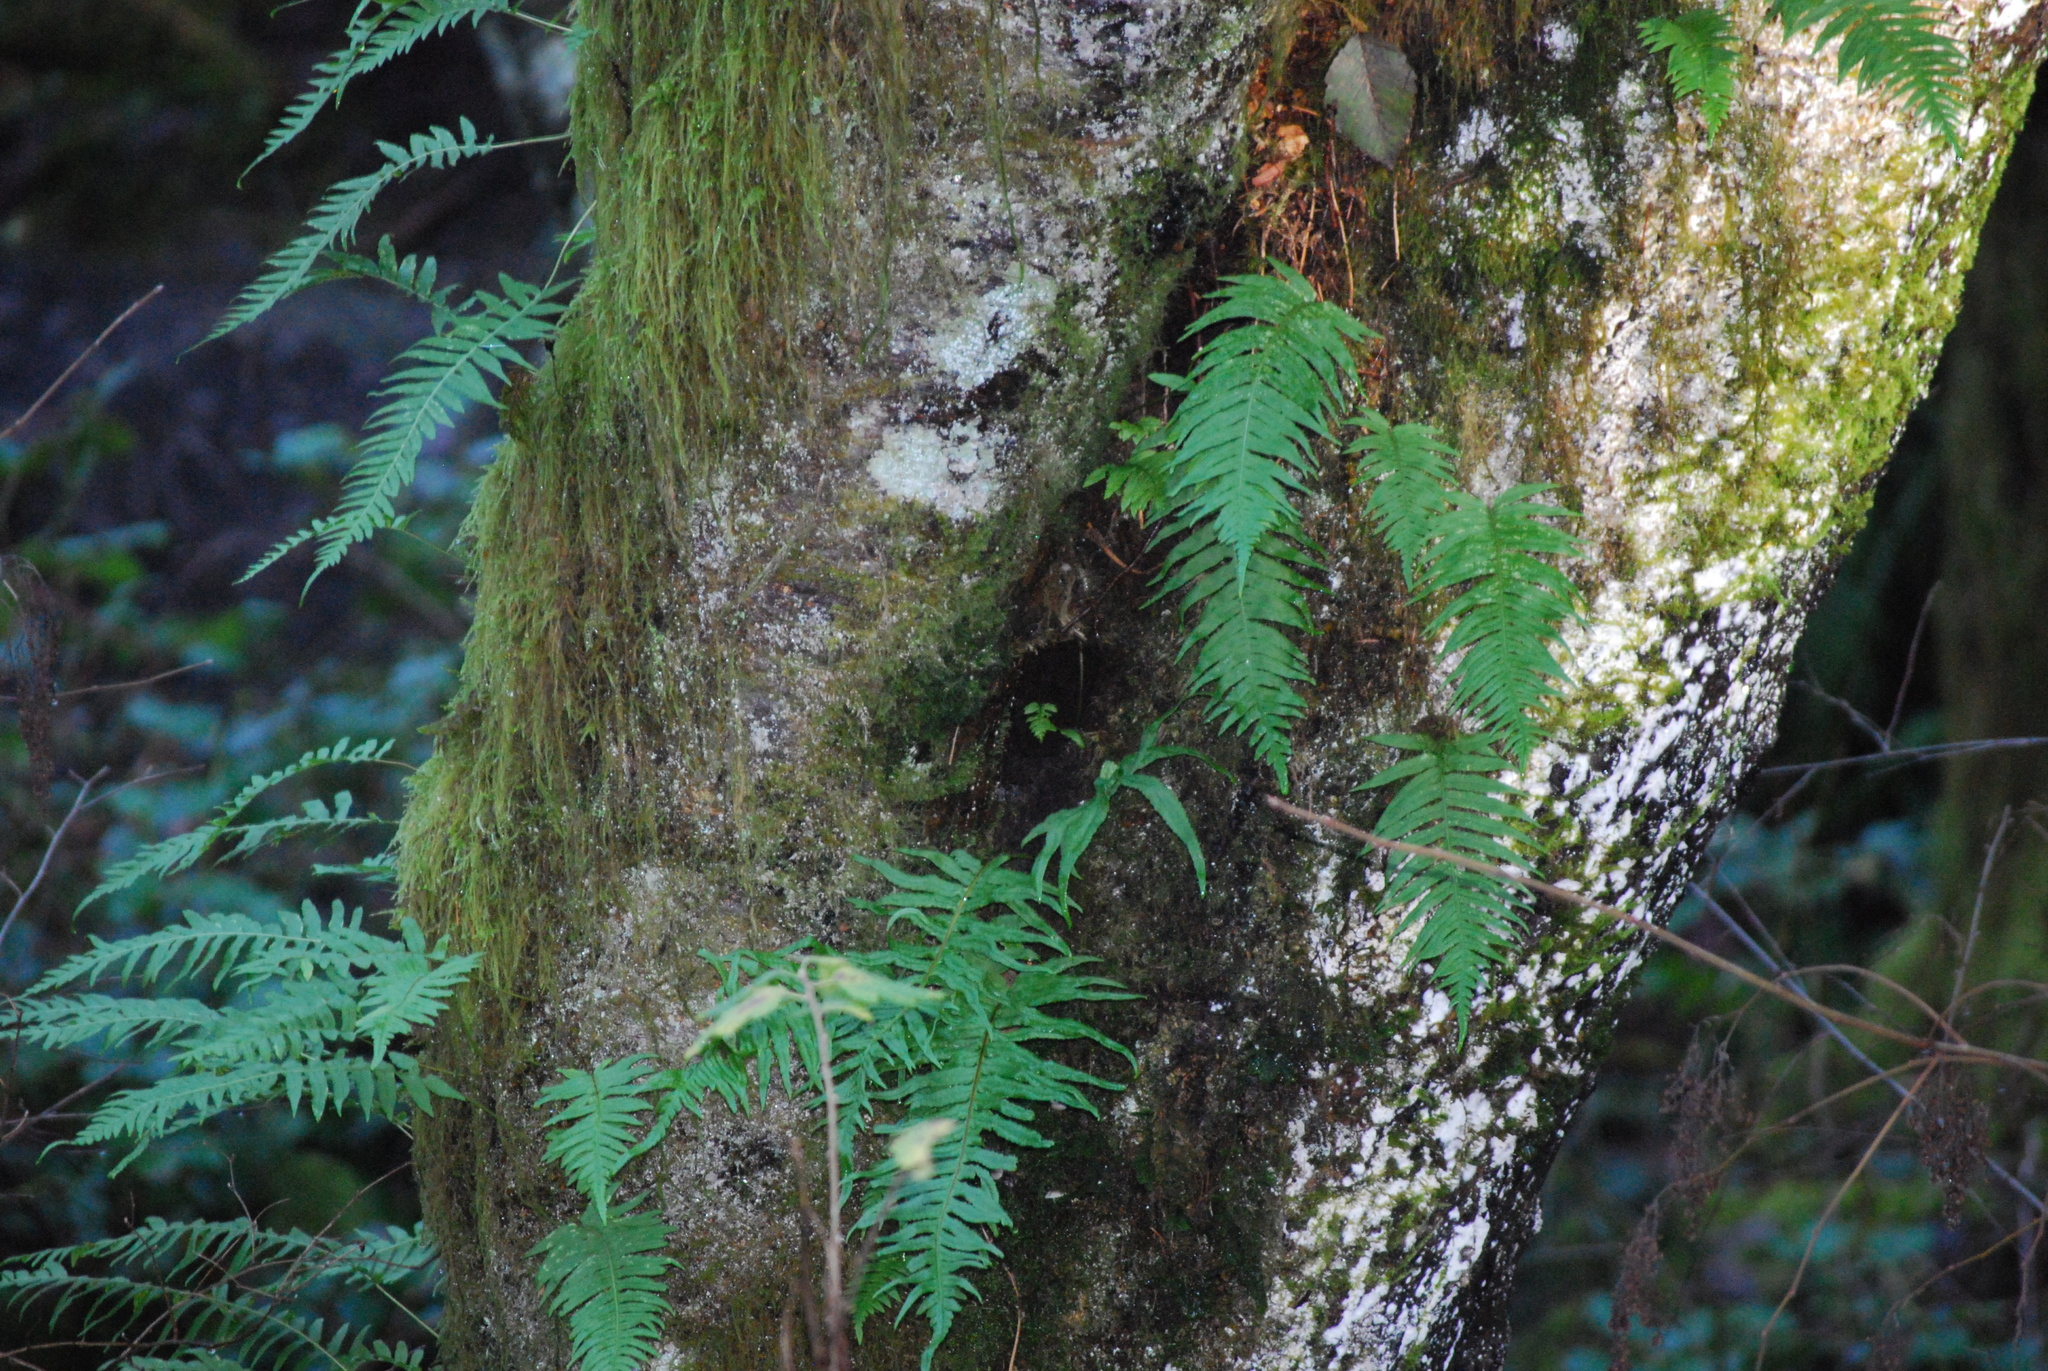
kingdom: Plantae
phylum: Tracheophyta
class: Polypodiopsida
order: Polypodiales
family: Polypodiaceae
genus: Polypodium
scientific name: Polypodium glycyrrhiza
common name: Licorice fern
